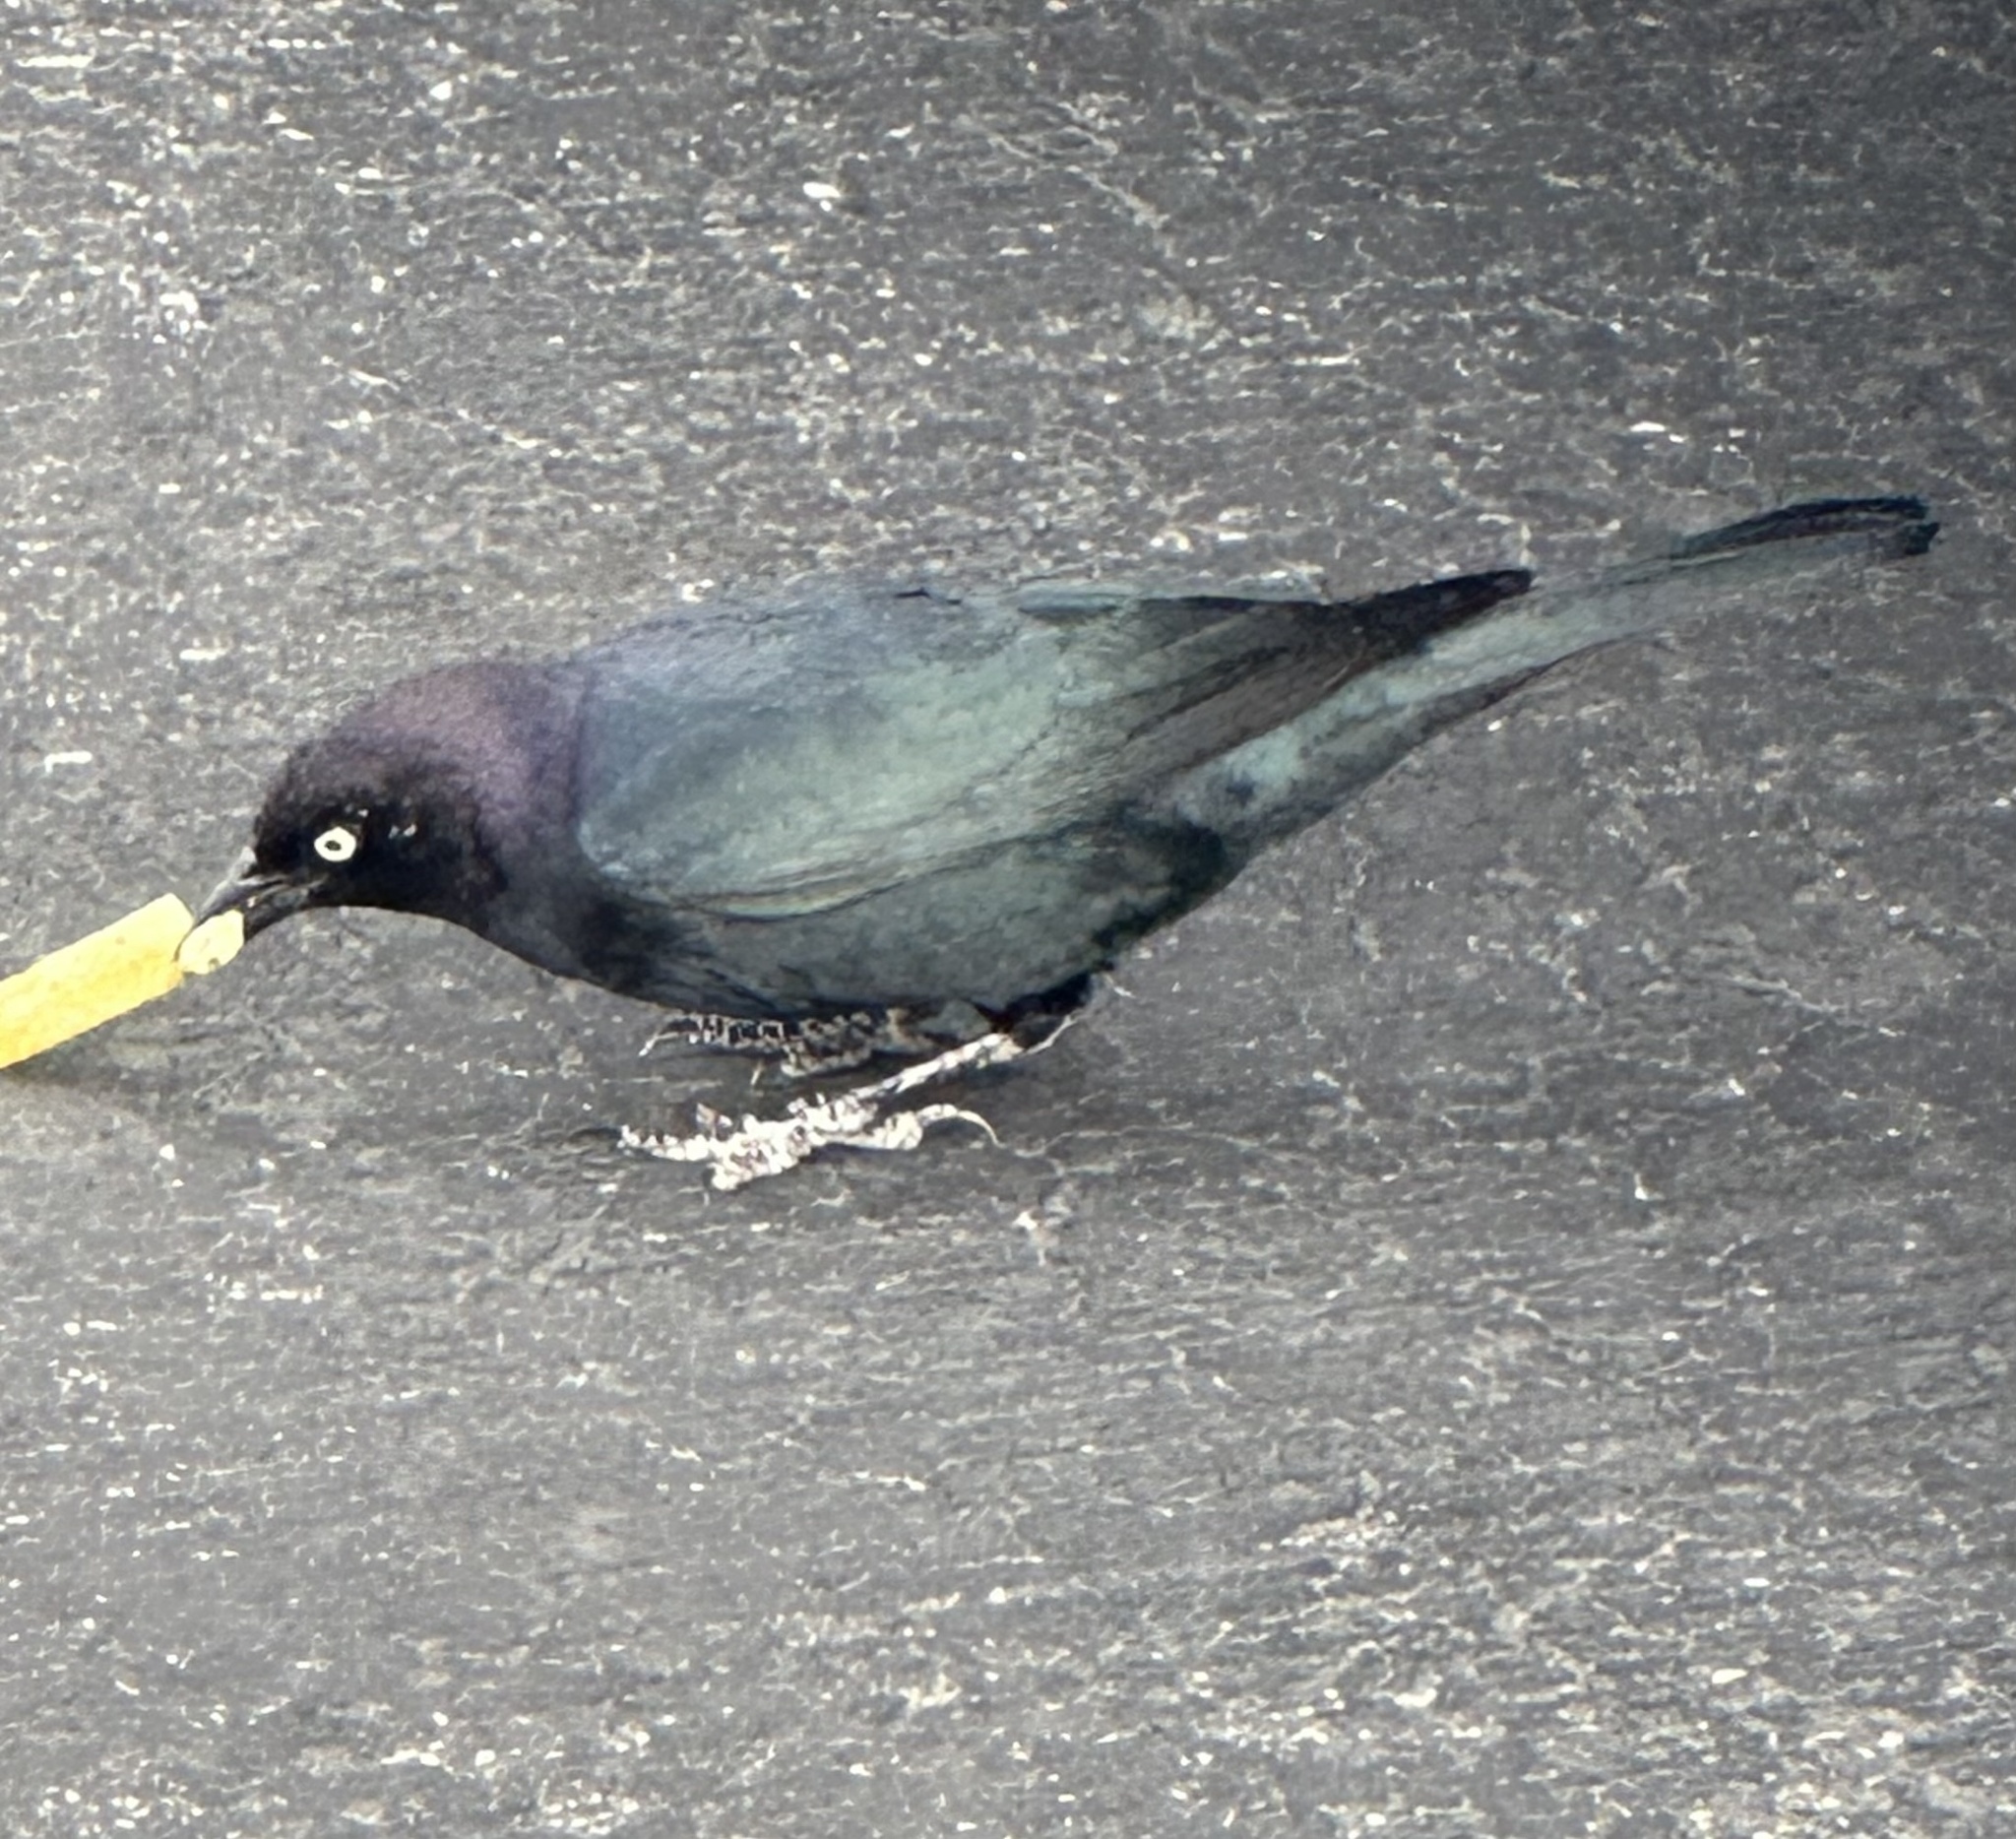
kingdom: Animalia
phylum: Chordata
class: Aves
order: Passeriformes
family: Icteridae
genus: Euphagus
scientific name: Euphagus cyanocephalus
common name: Brewer's blackbird
